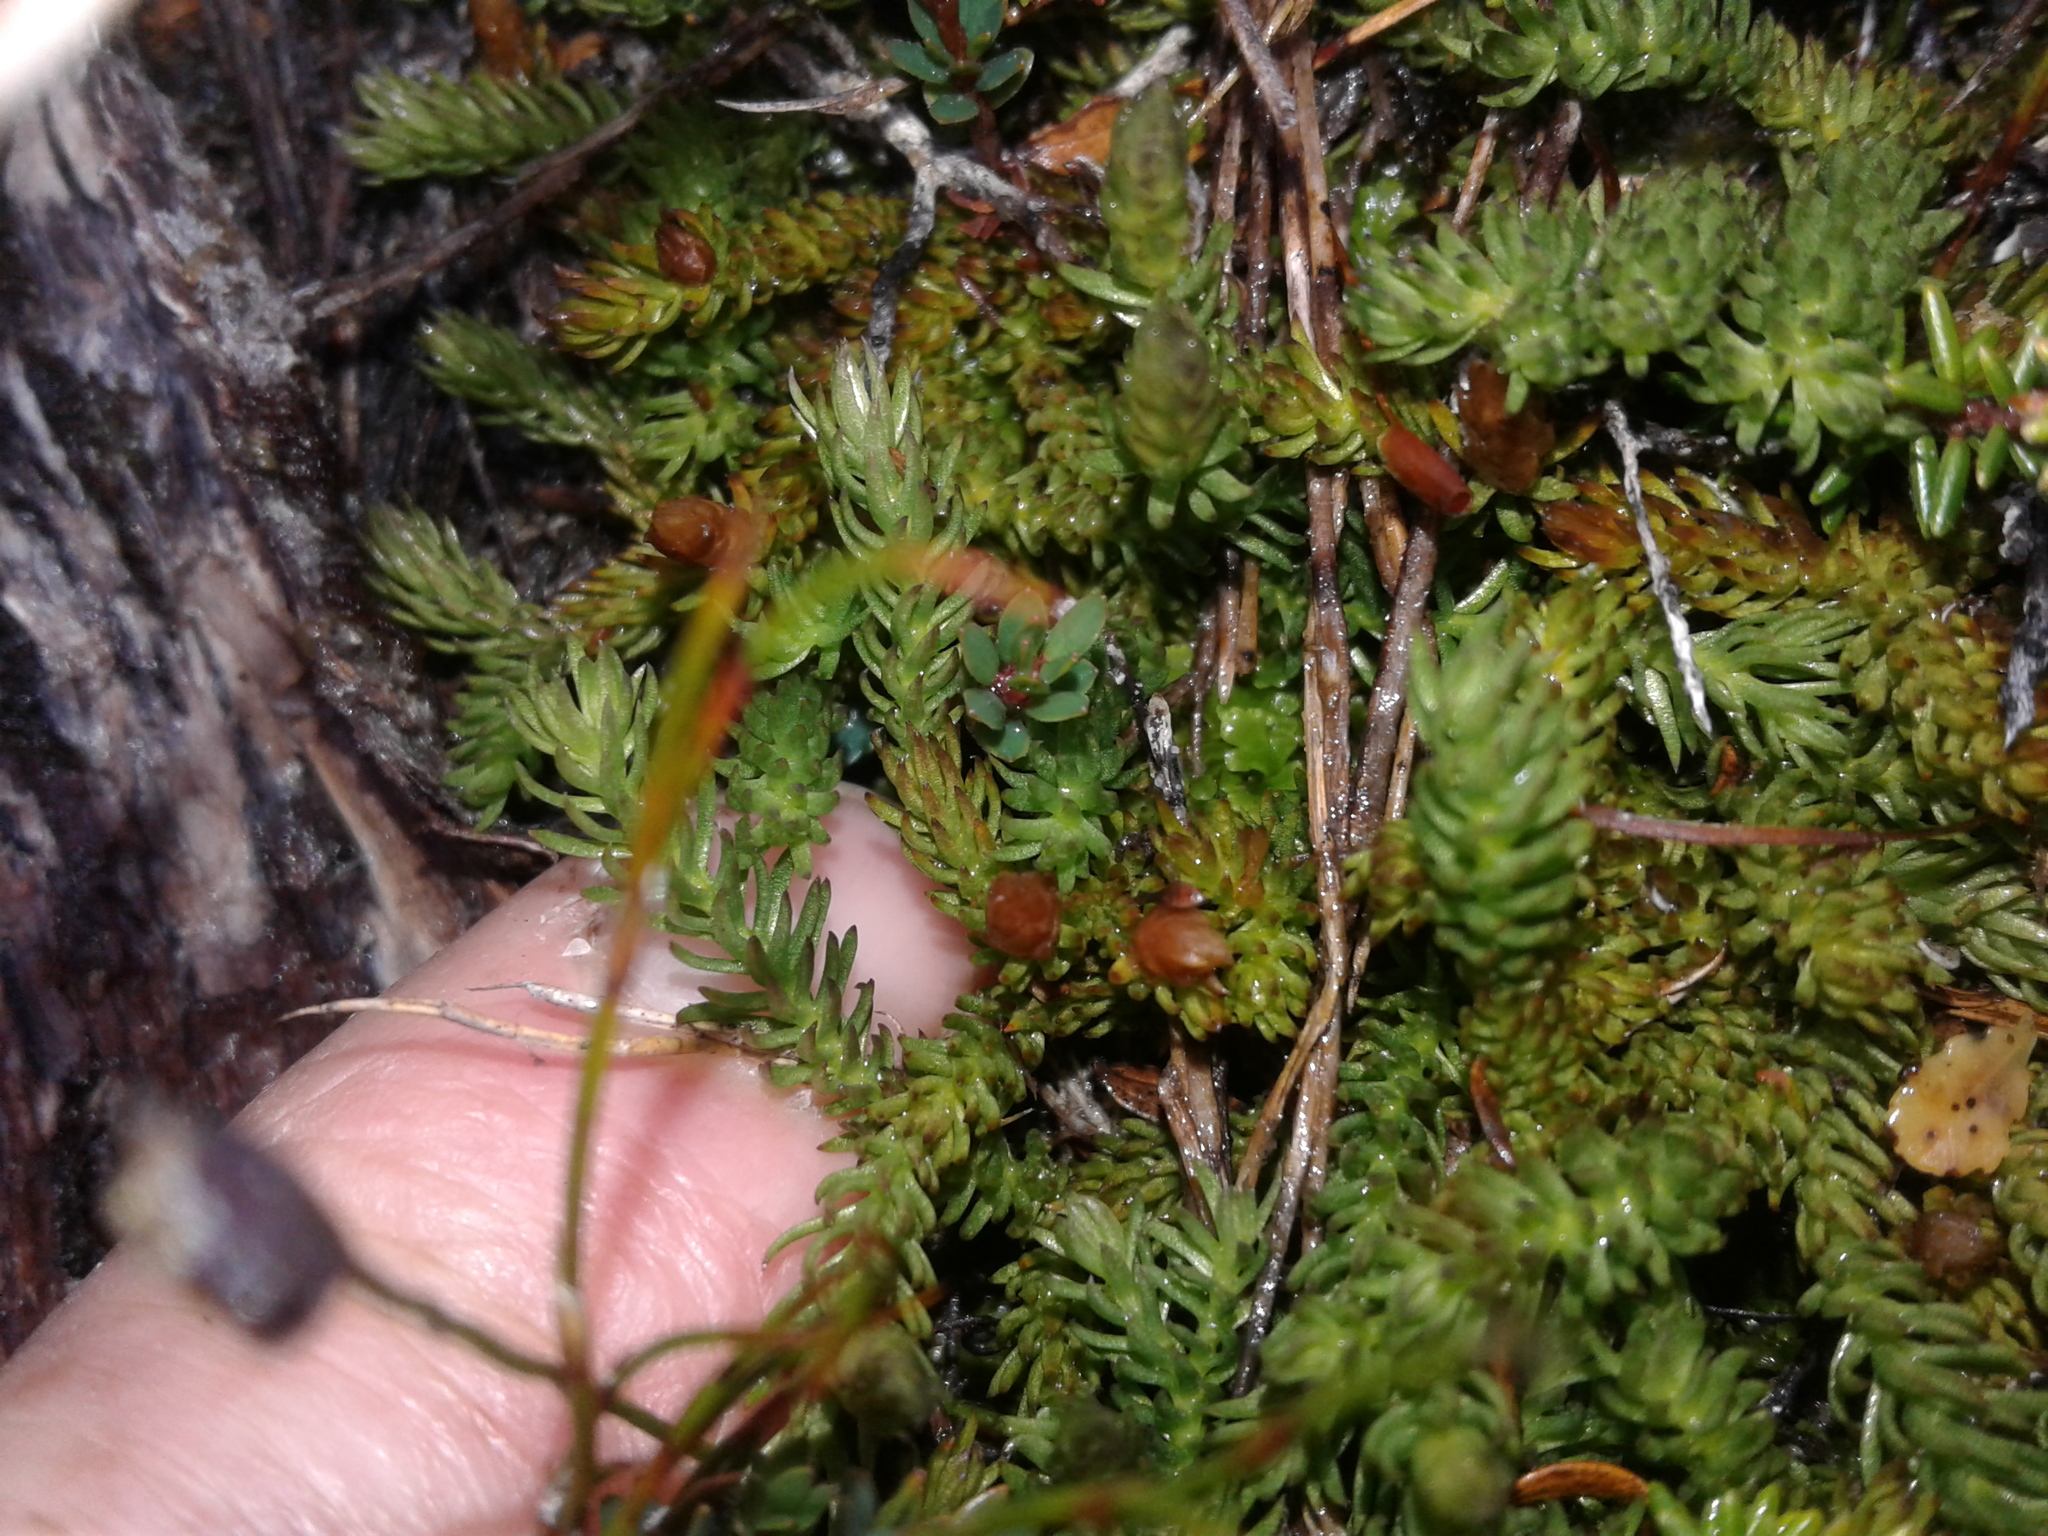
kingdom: Plantae
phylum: Tracheophyta
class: Lycopodiopsida
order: Lycopodiales
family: Lycopodiaceae
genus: Lateristachys
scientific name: Lateristachys diffusa
